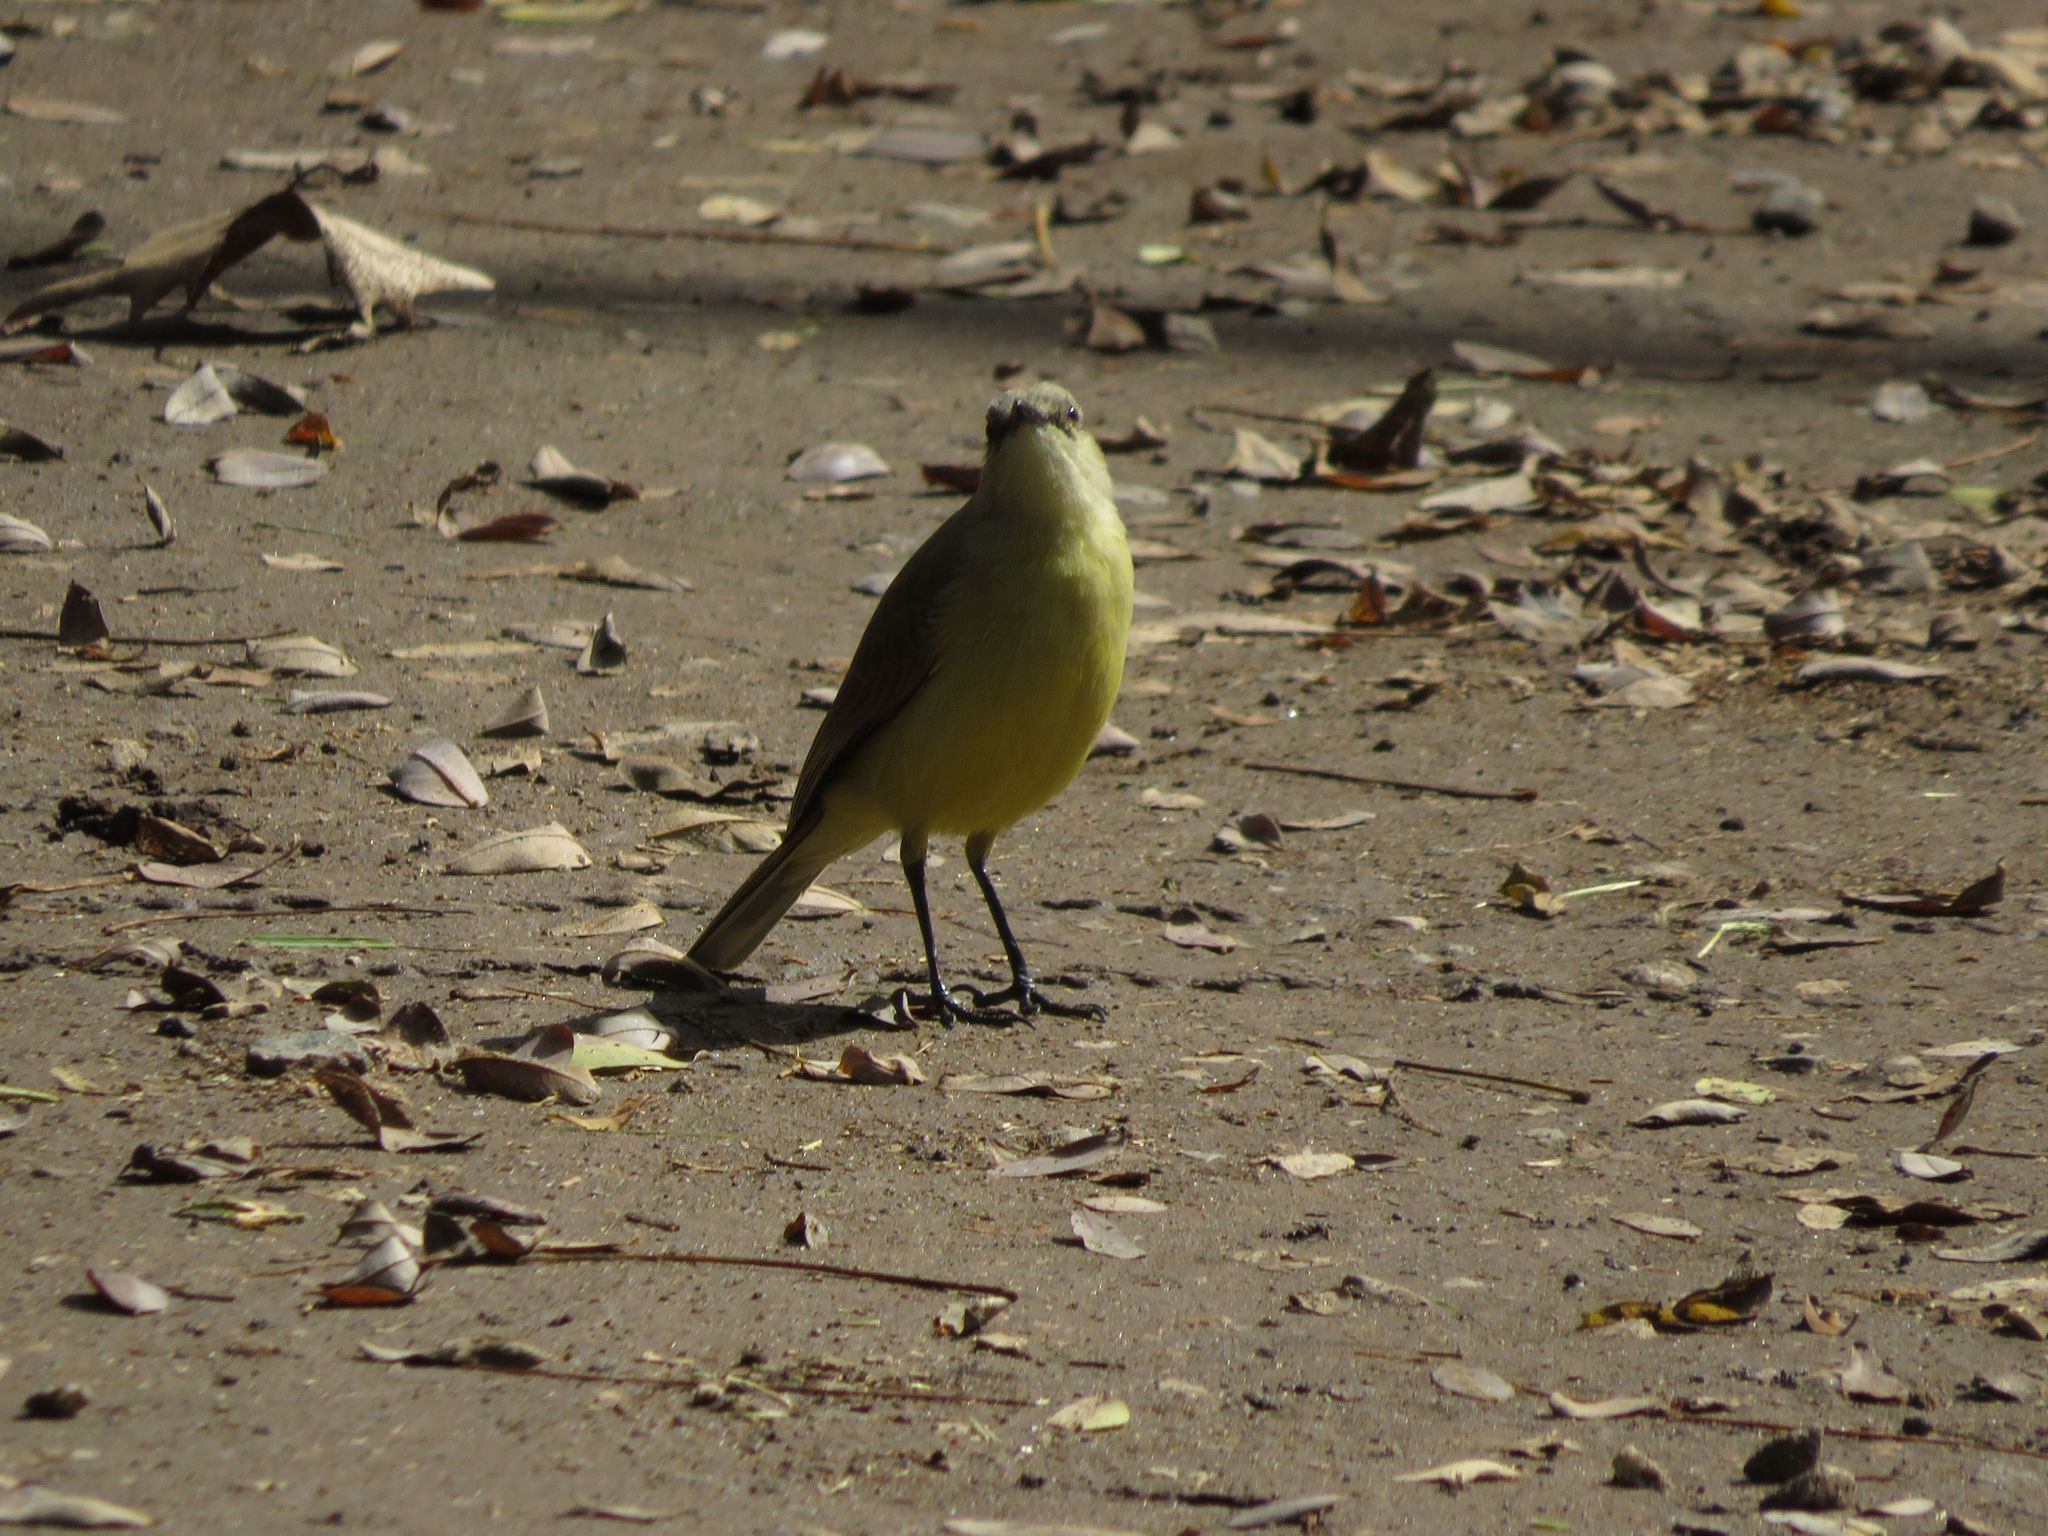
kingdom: Animalia
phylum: Chordata
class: Aves
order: Passeriformes
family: Tyrannidae
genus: Machetornis
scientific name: Machetornis rixosa
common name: Cattle tyrant
